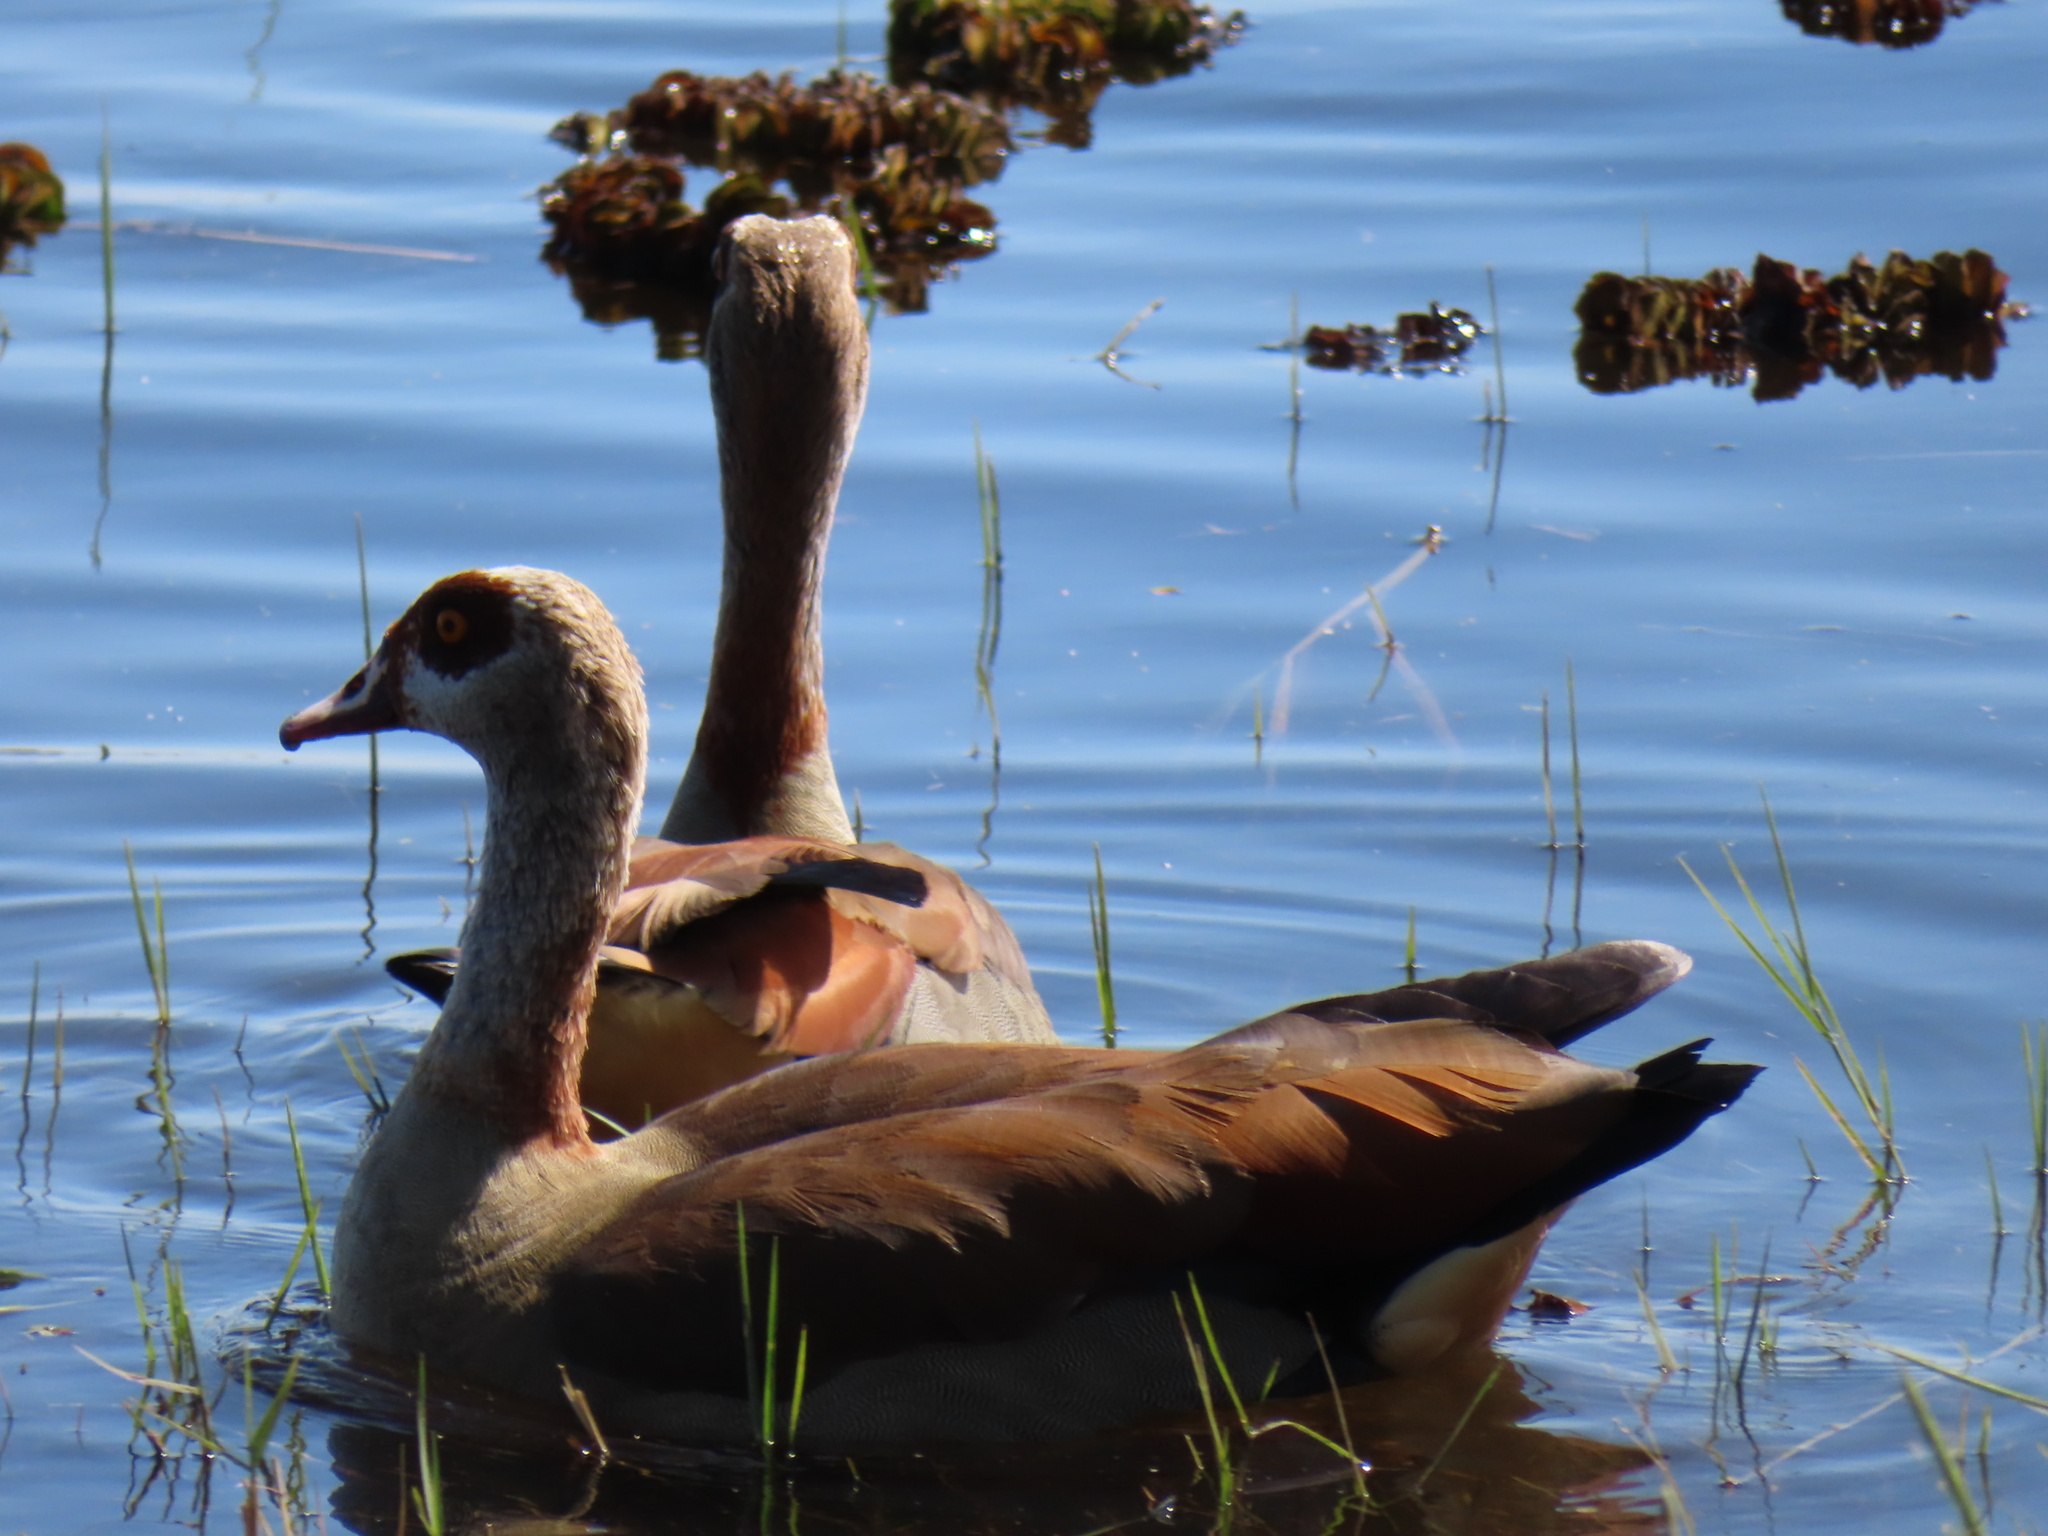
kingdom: Animalia
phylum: Chordata
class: Aves
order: Anseriformes
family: Anatidae
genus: Alopochen
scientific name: Alopochen aegyptiaca
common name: Egyptian goose
